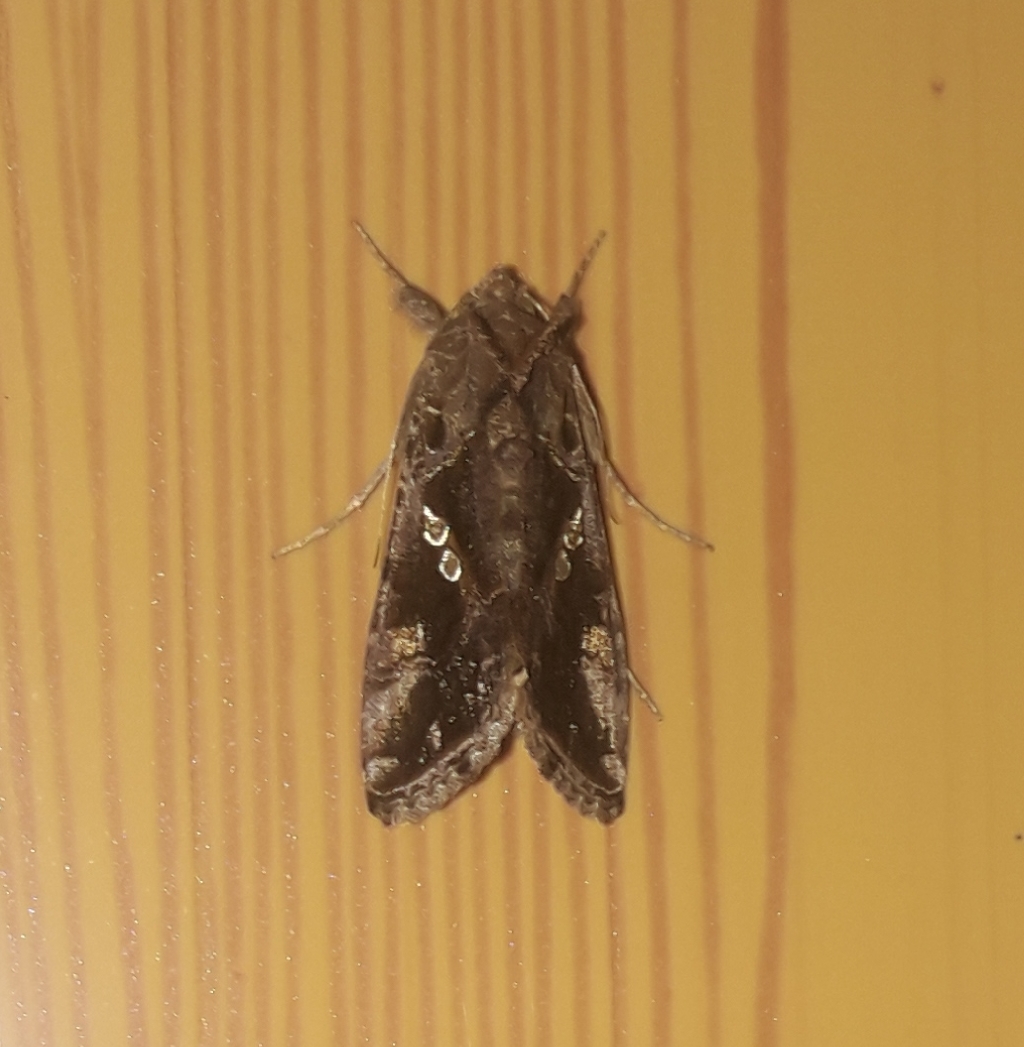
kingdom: Animalia
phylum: Arthropoda
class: Insecta
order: Lepidoptera
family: Noctuidae
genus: Chrysodeixis
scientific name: Chrysodeixis includens
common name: Cutworm moth
